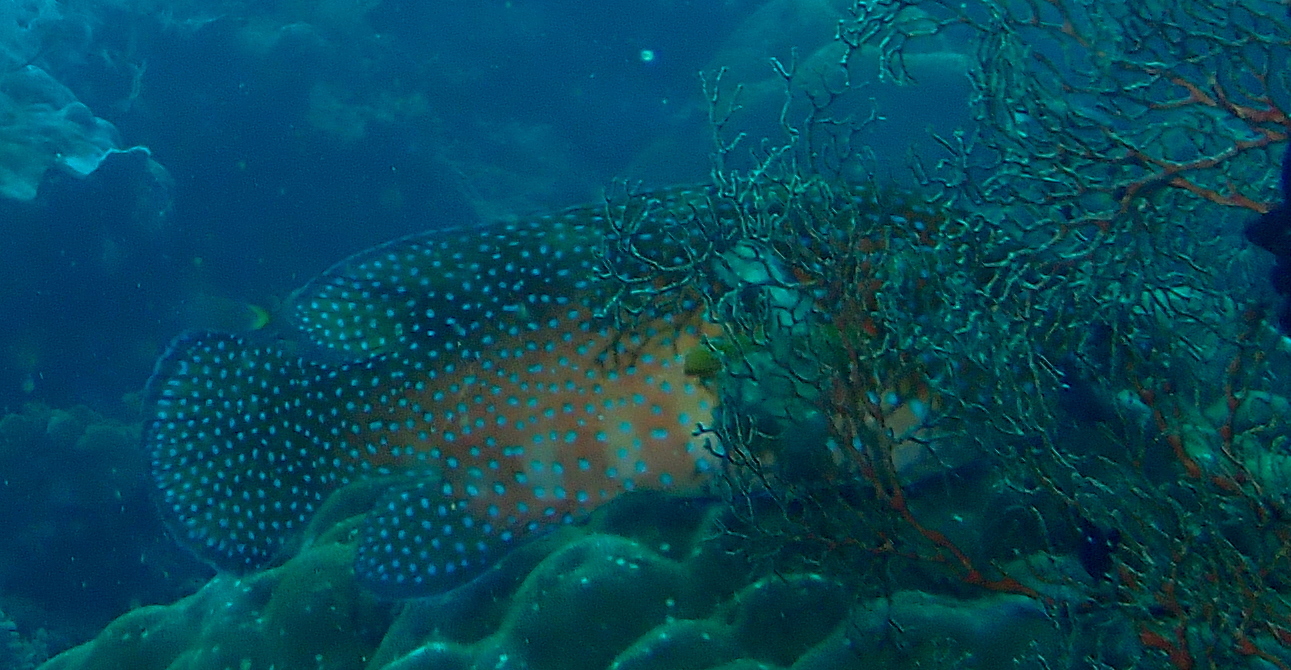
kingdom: Animalia
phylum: Chordata
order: Perciformes
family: Serranidae
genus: Cephalopholis
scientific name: Cephalopholis miniata
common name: Coral hind
